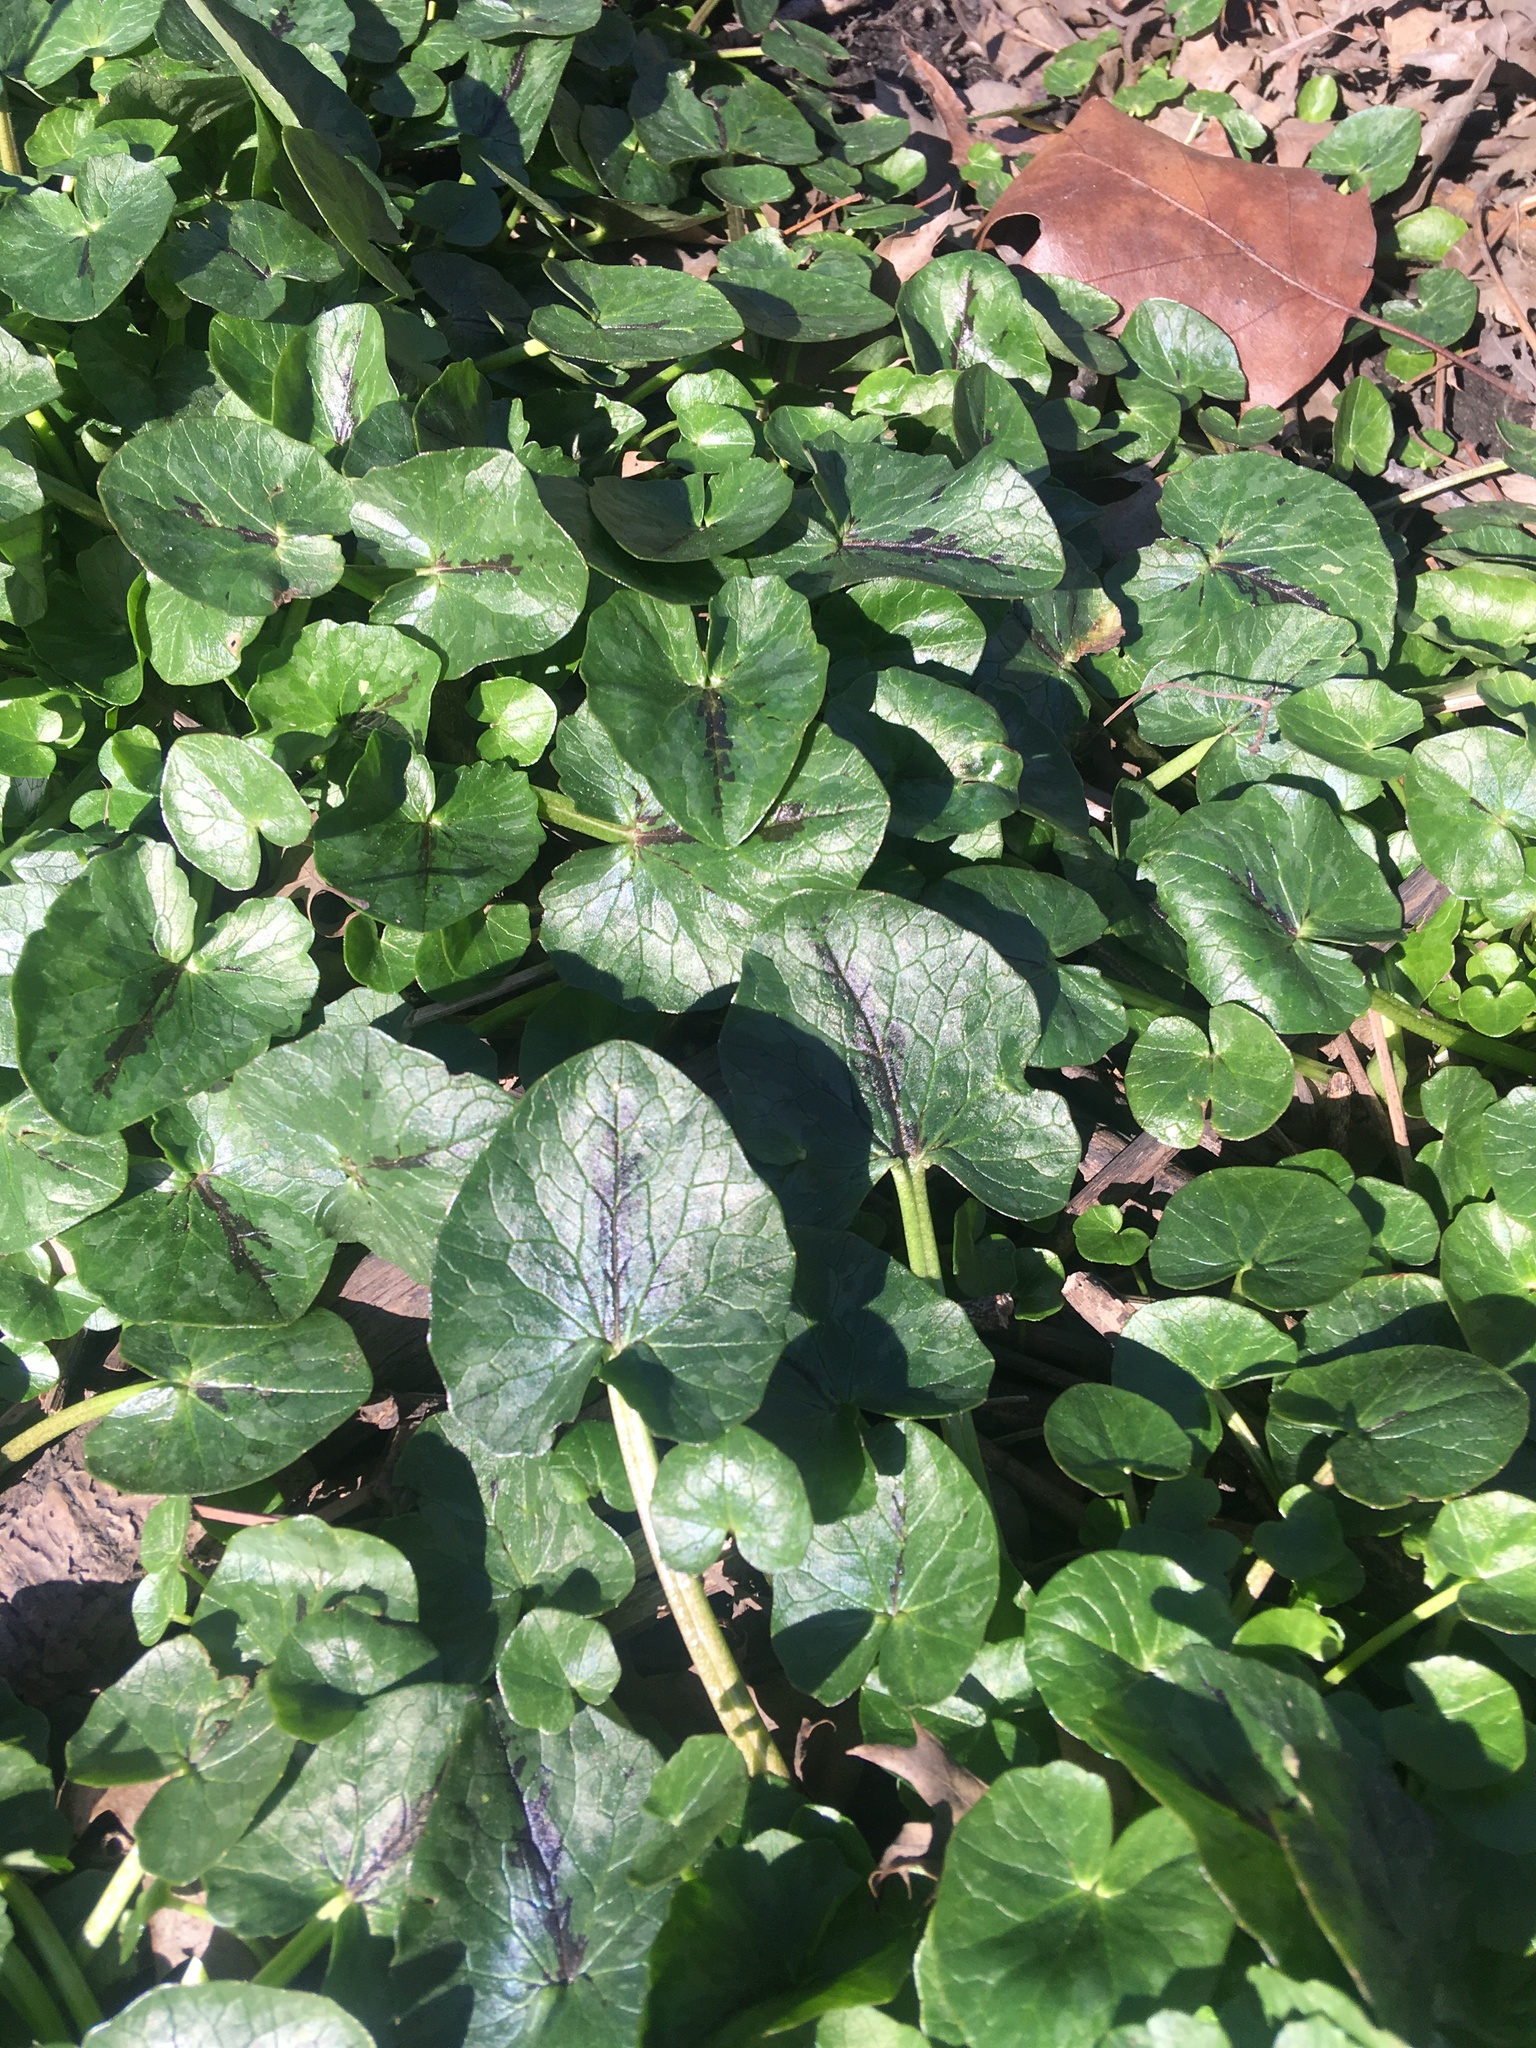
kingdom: Plantae
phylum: Tracheophyta
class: Magnoliopsida
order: Ranunculales
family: Ranunculaceae
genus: Ficaria
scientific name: Ficaria verna
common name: Lesser celandine
